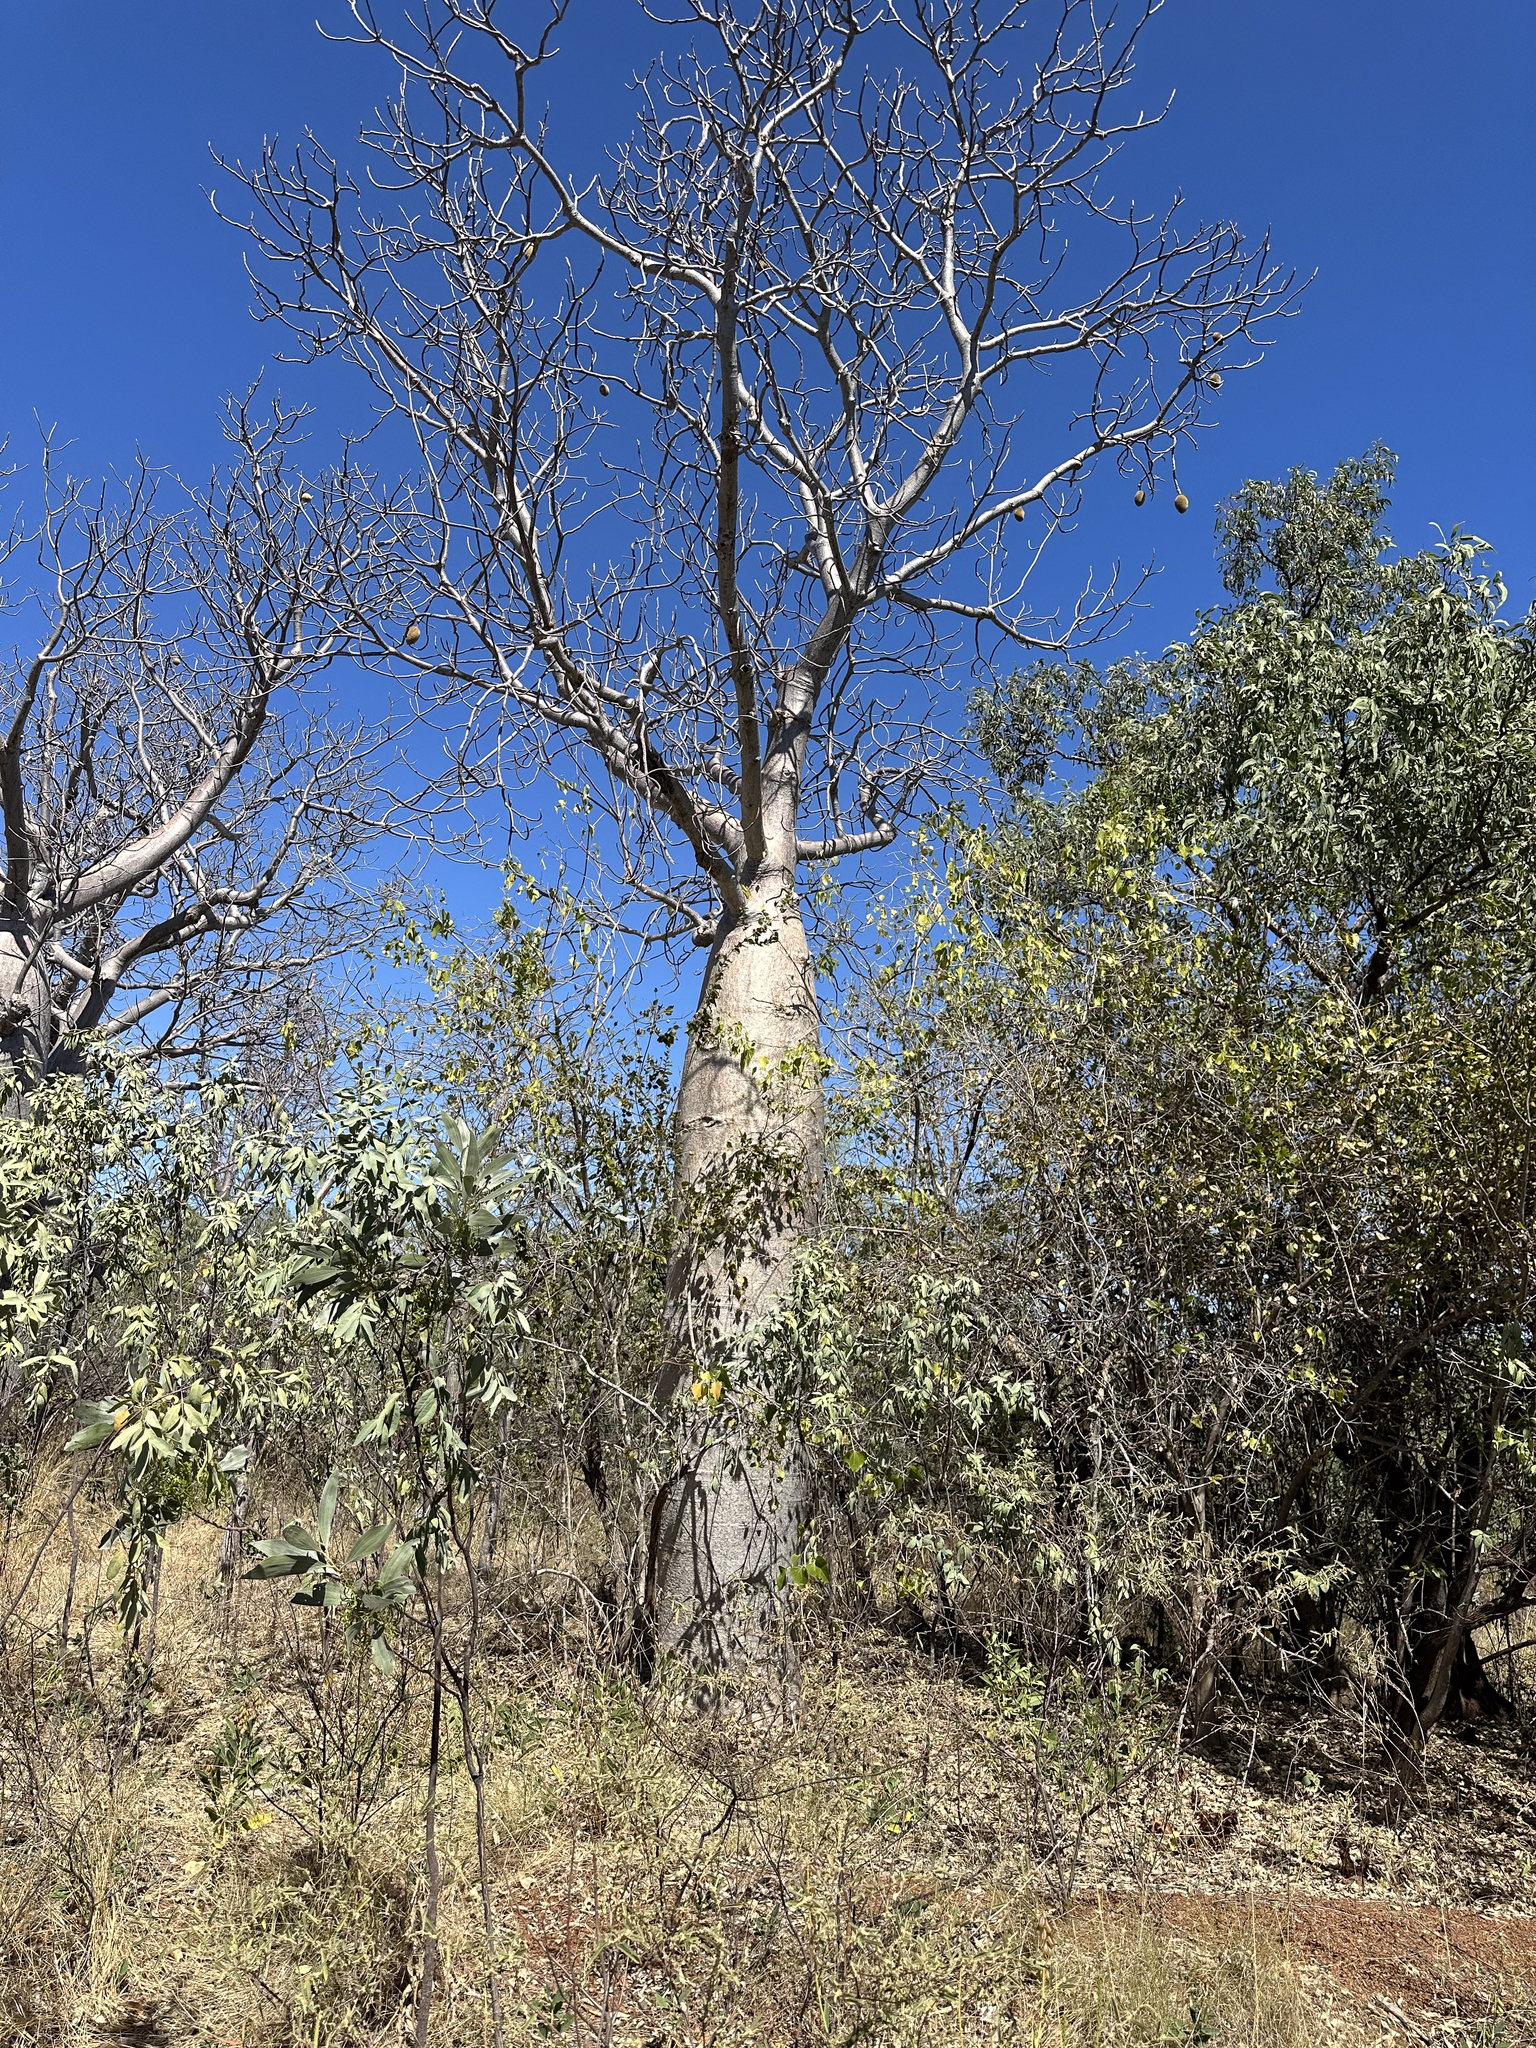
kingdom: Plantae
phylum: Tracheophyta
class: Magnoliopsida
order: Malvales
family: Malvaceae
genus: Adansonia
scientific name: Adansonia gregorii
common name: Australian baobab
